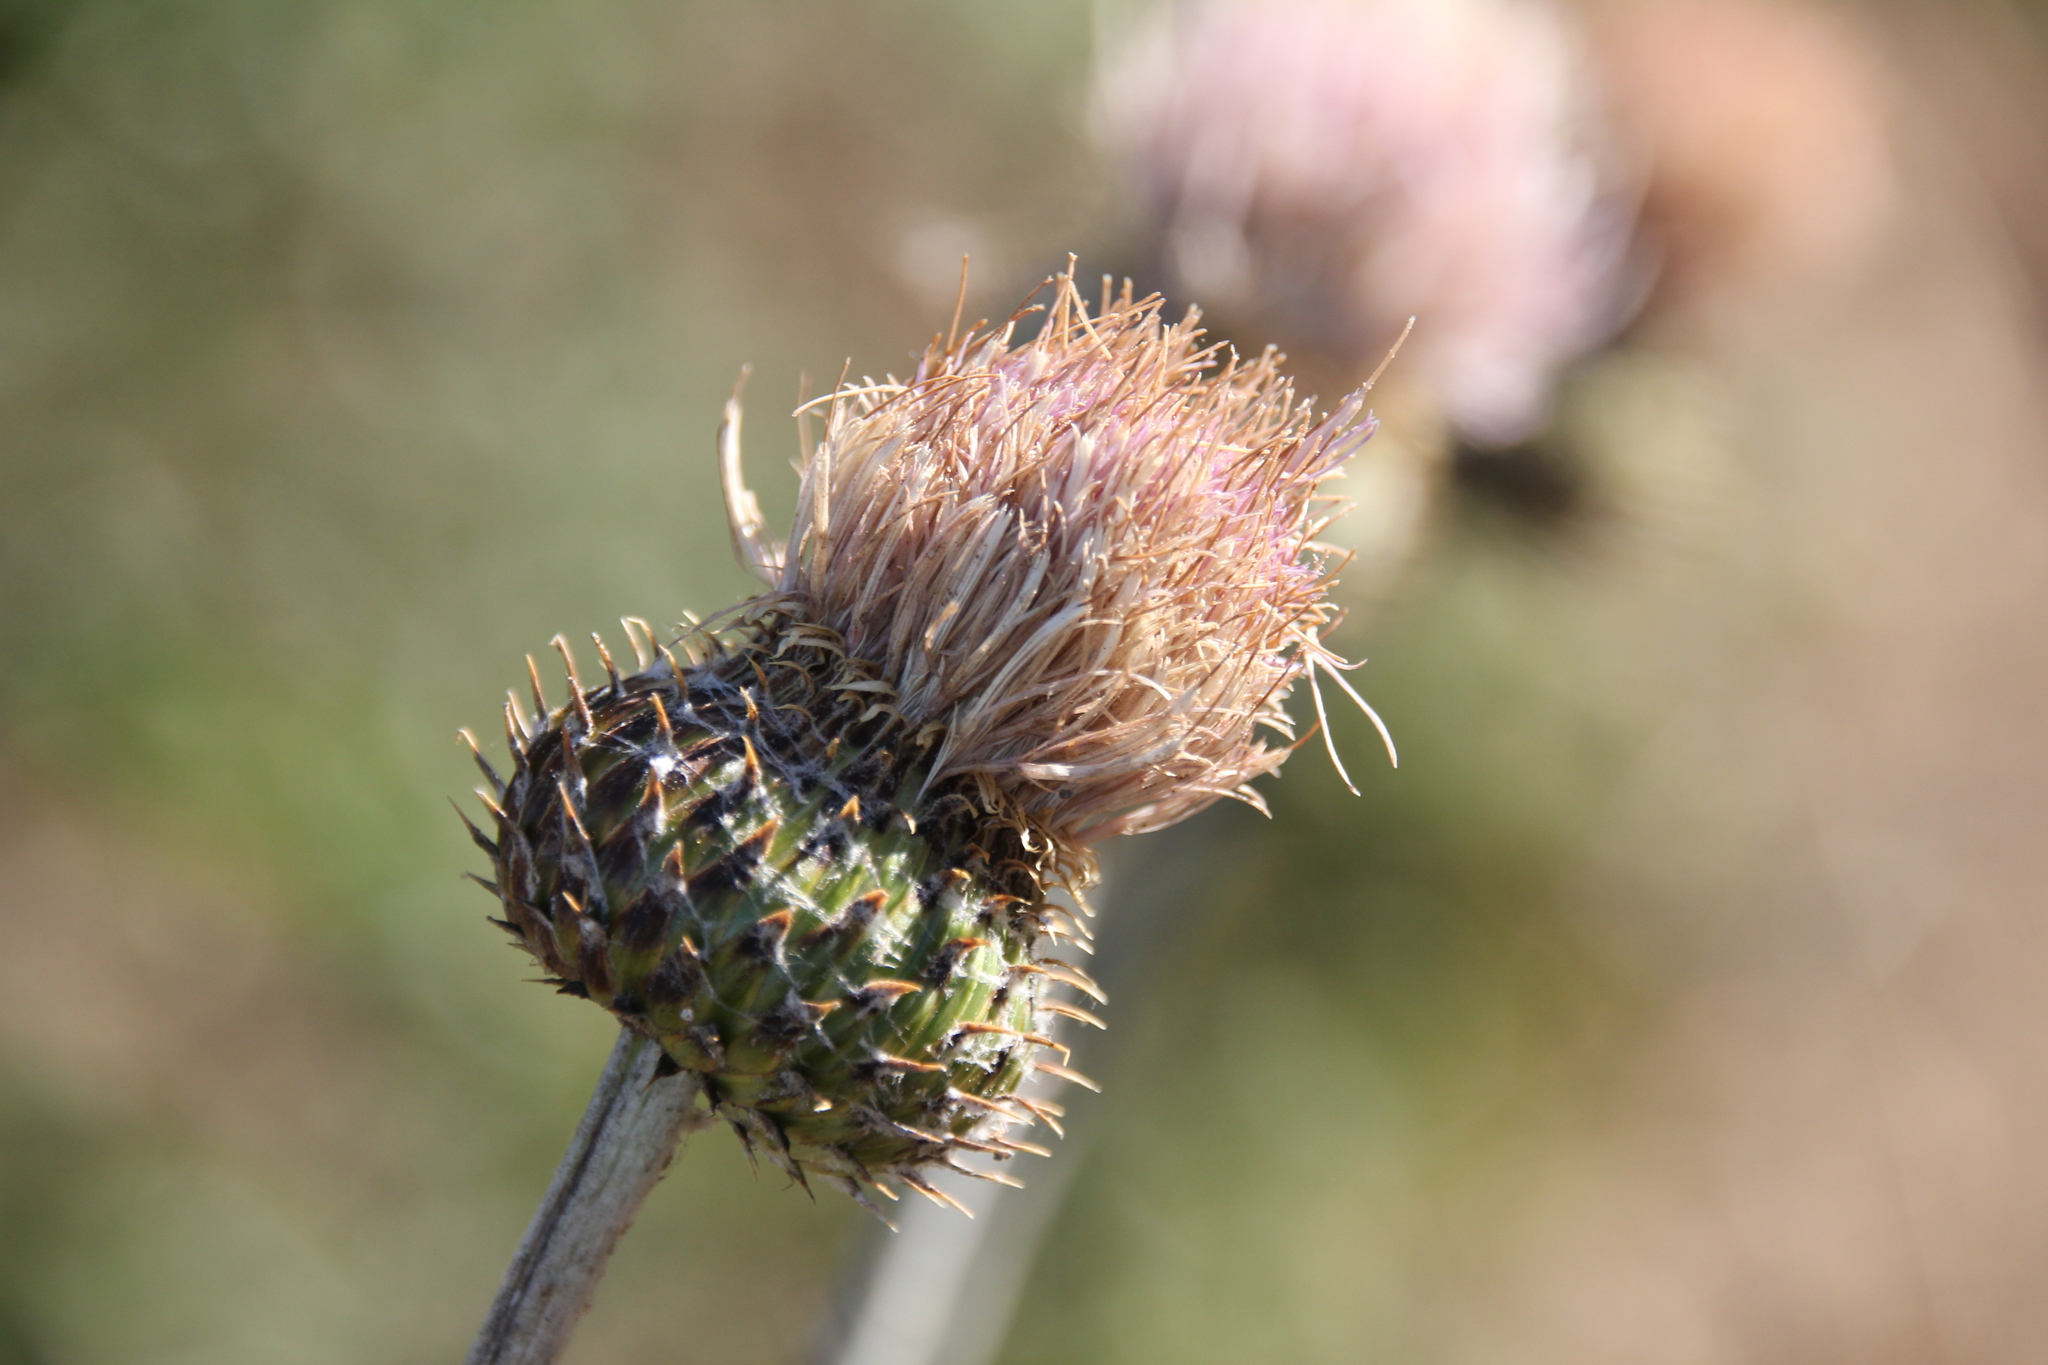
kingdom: Plantae
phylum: Tracheophyta
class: Magnoliopsida
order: Asterales
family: Asteraceae
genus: Cirsium
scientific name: Cirsium occidentale
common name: Western thistle
